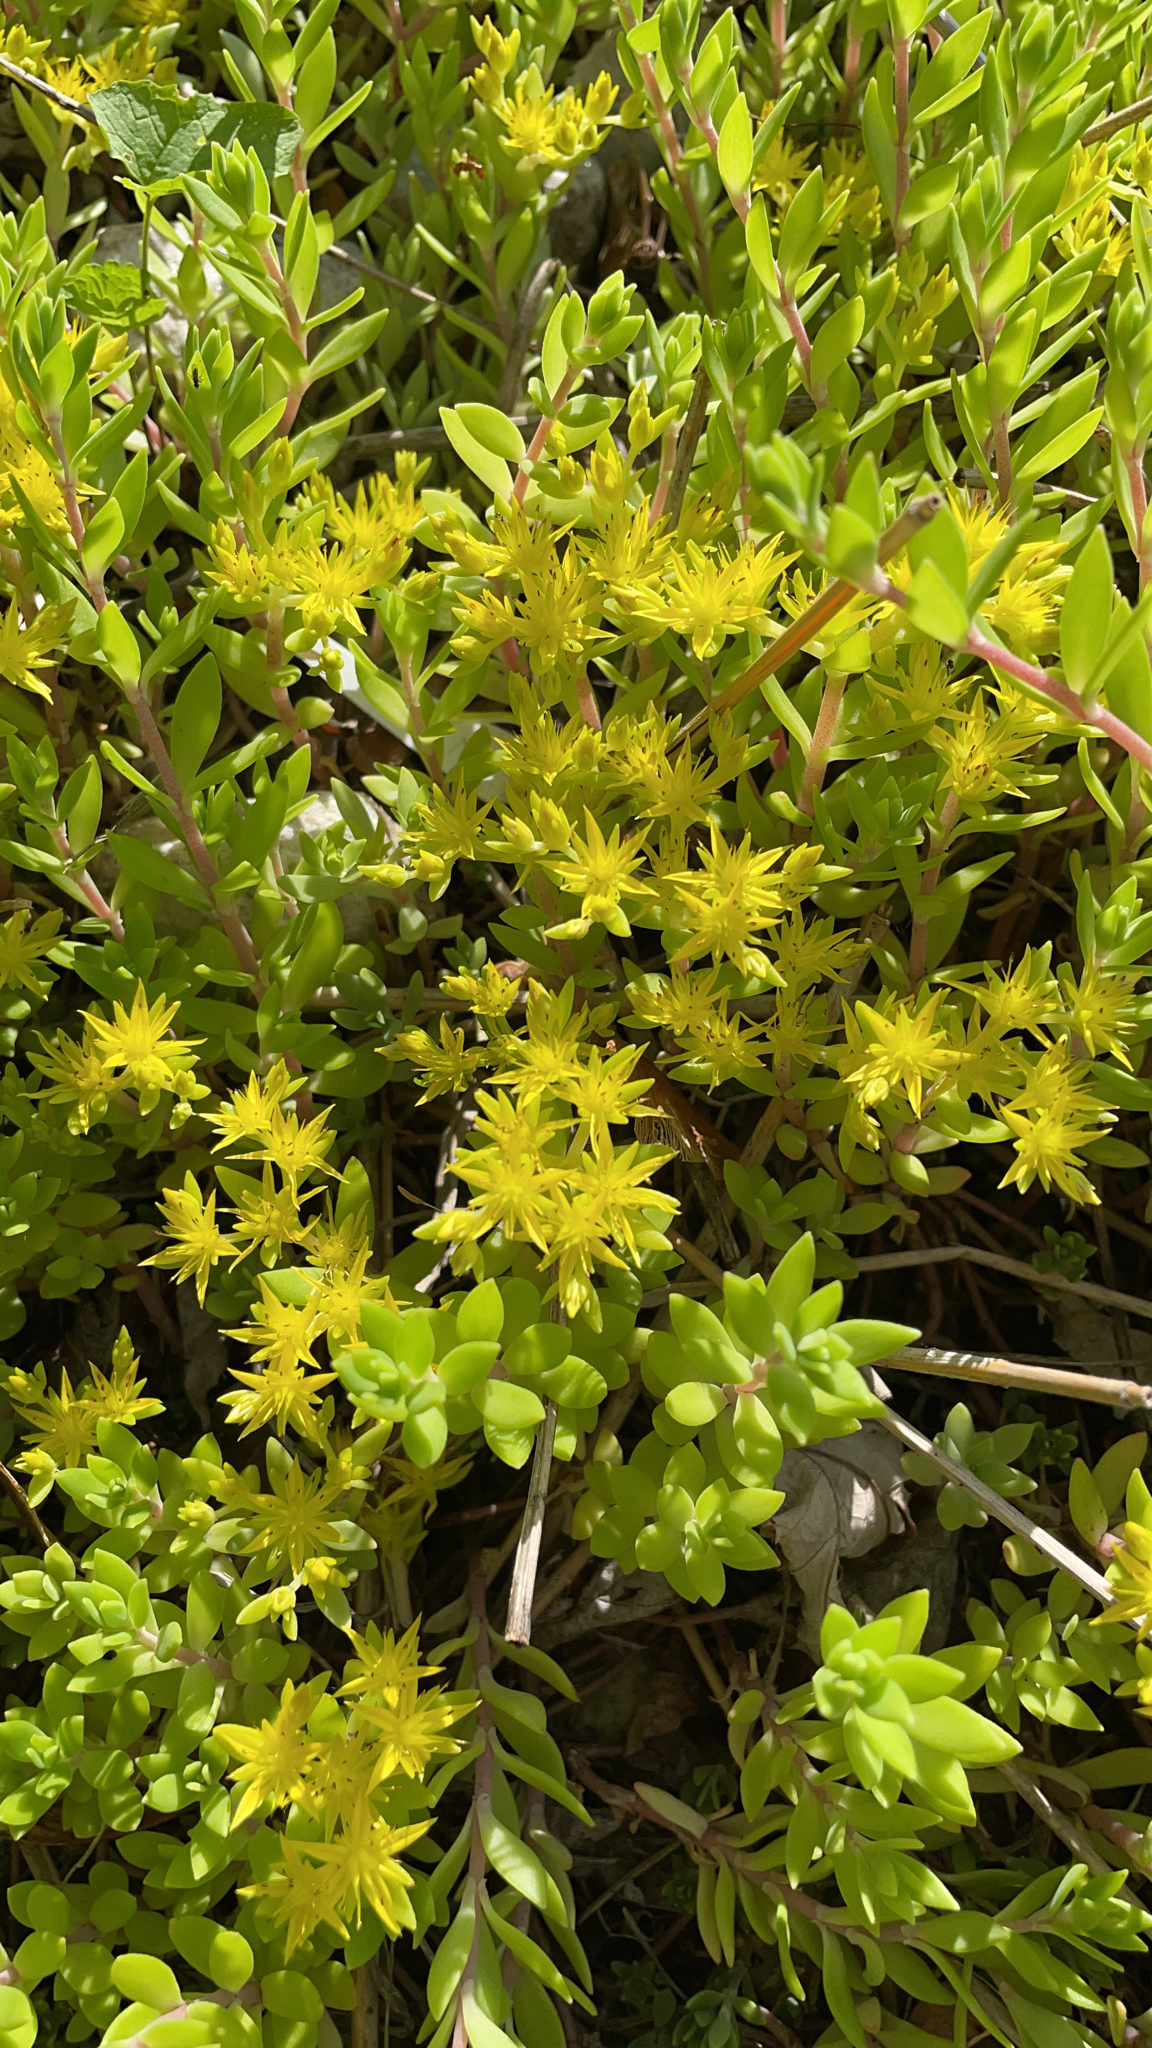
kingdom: Plantae
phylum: Tracheophyta
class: Magnoliopsida
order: Saxifragales
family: Crassulaceae
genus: Sedum
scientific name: Sedum sarmentosum
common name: Stringy stonecrop
